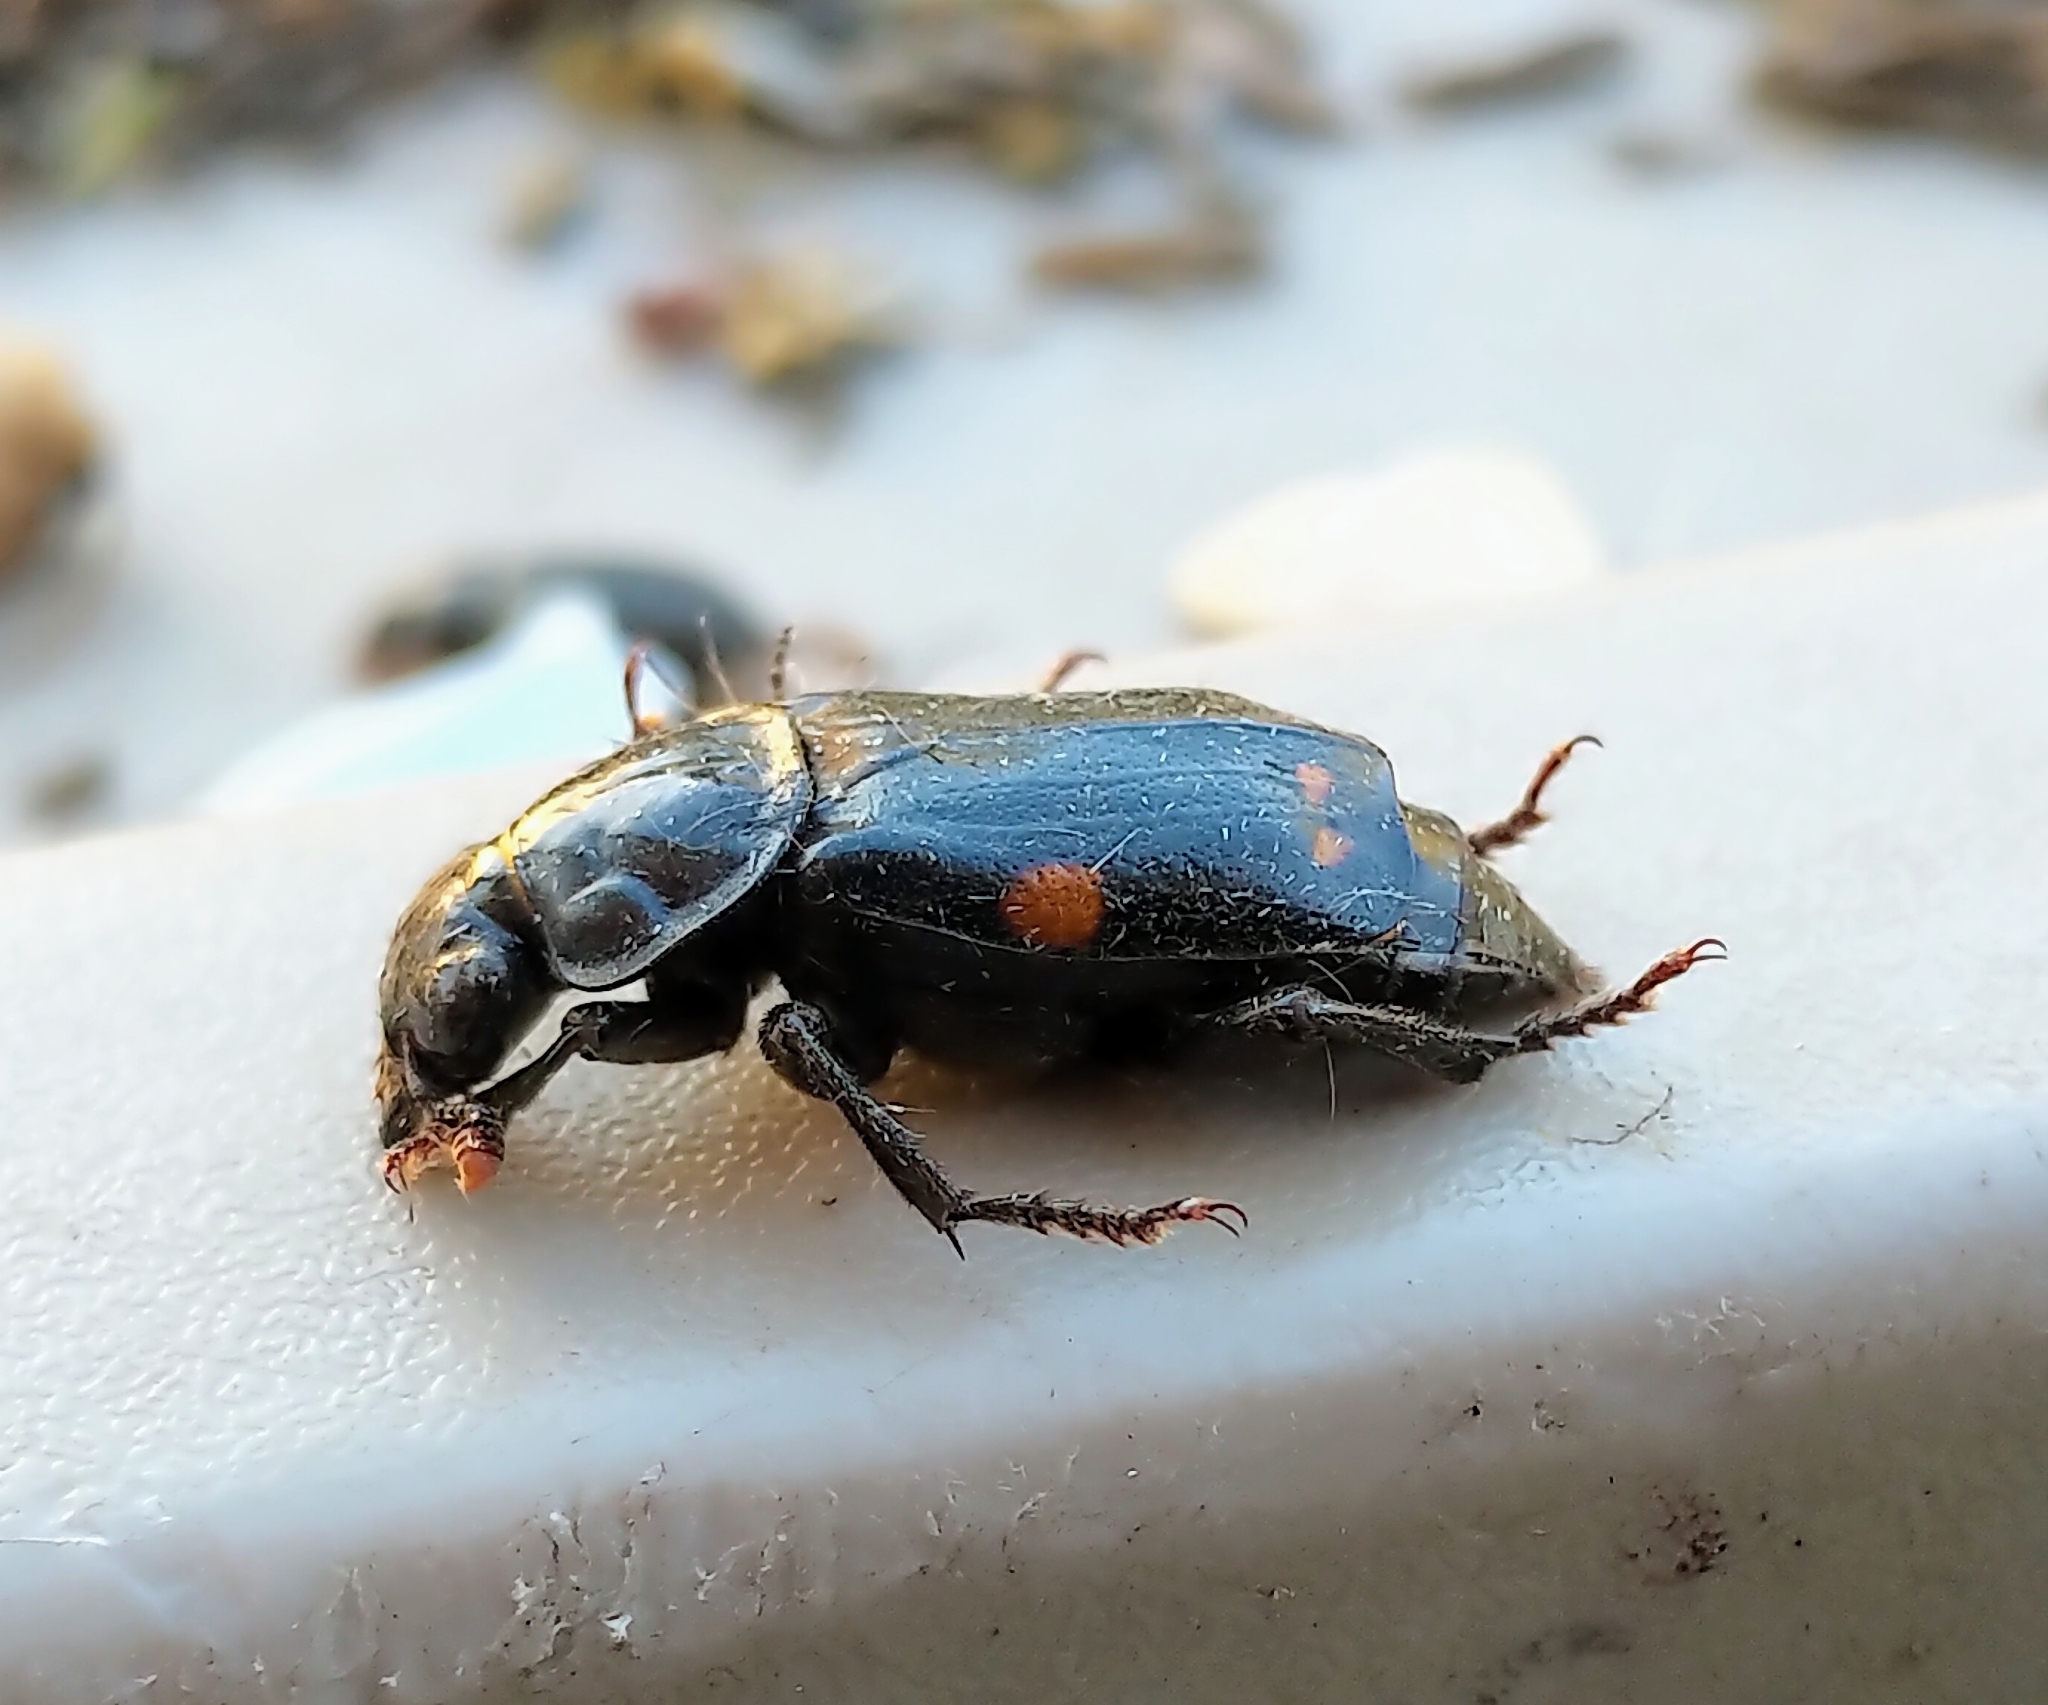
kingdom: Animalia
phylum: Arthropoda
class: Insecta
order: Coleoptera
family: Staphylinidae
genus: Nicrophorus
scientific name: Nicrophorus pustulatus
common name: Pustulated carrion beetle
